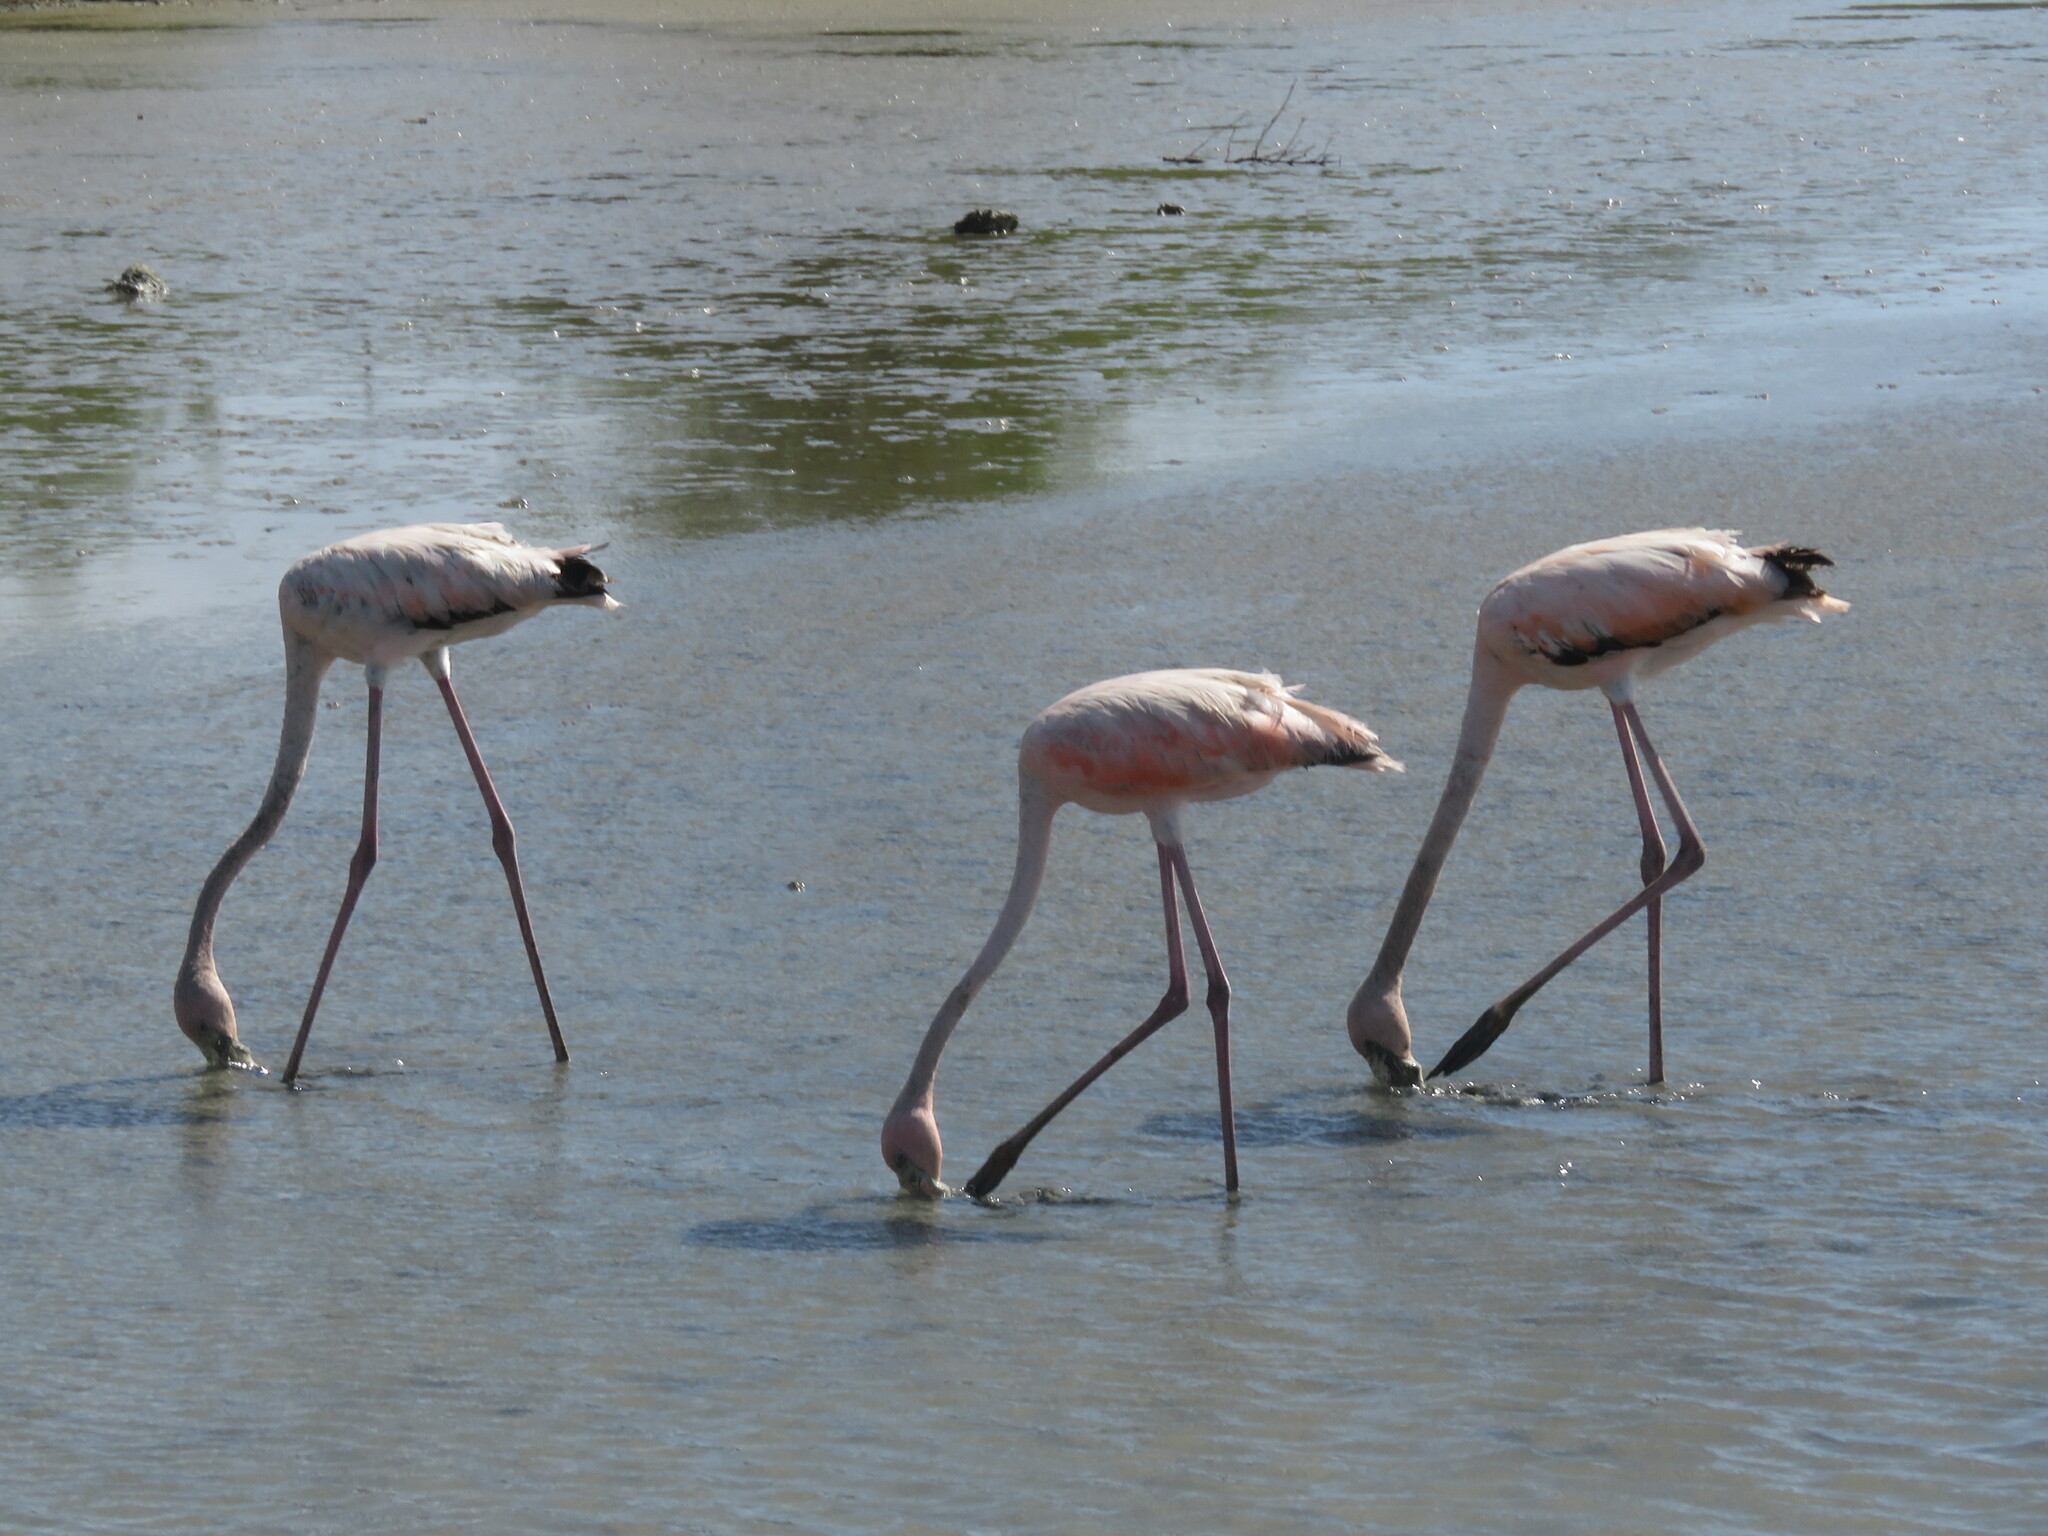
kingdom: Animalia
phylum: Chordata
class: Aves
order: Phoenicopteriformes
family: Phoenicopteridae
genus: Phoenicopterus
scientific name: Phoenicopterus ruber
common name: American flamingo
